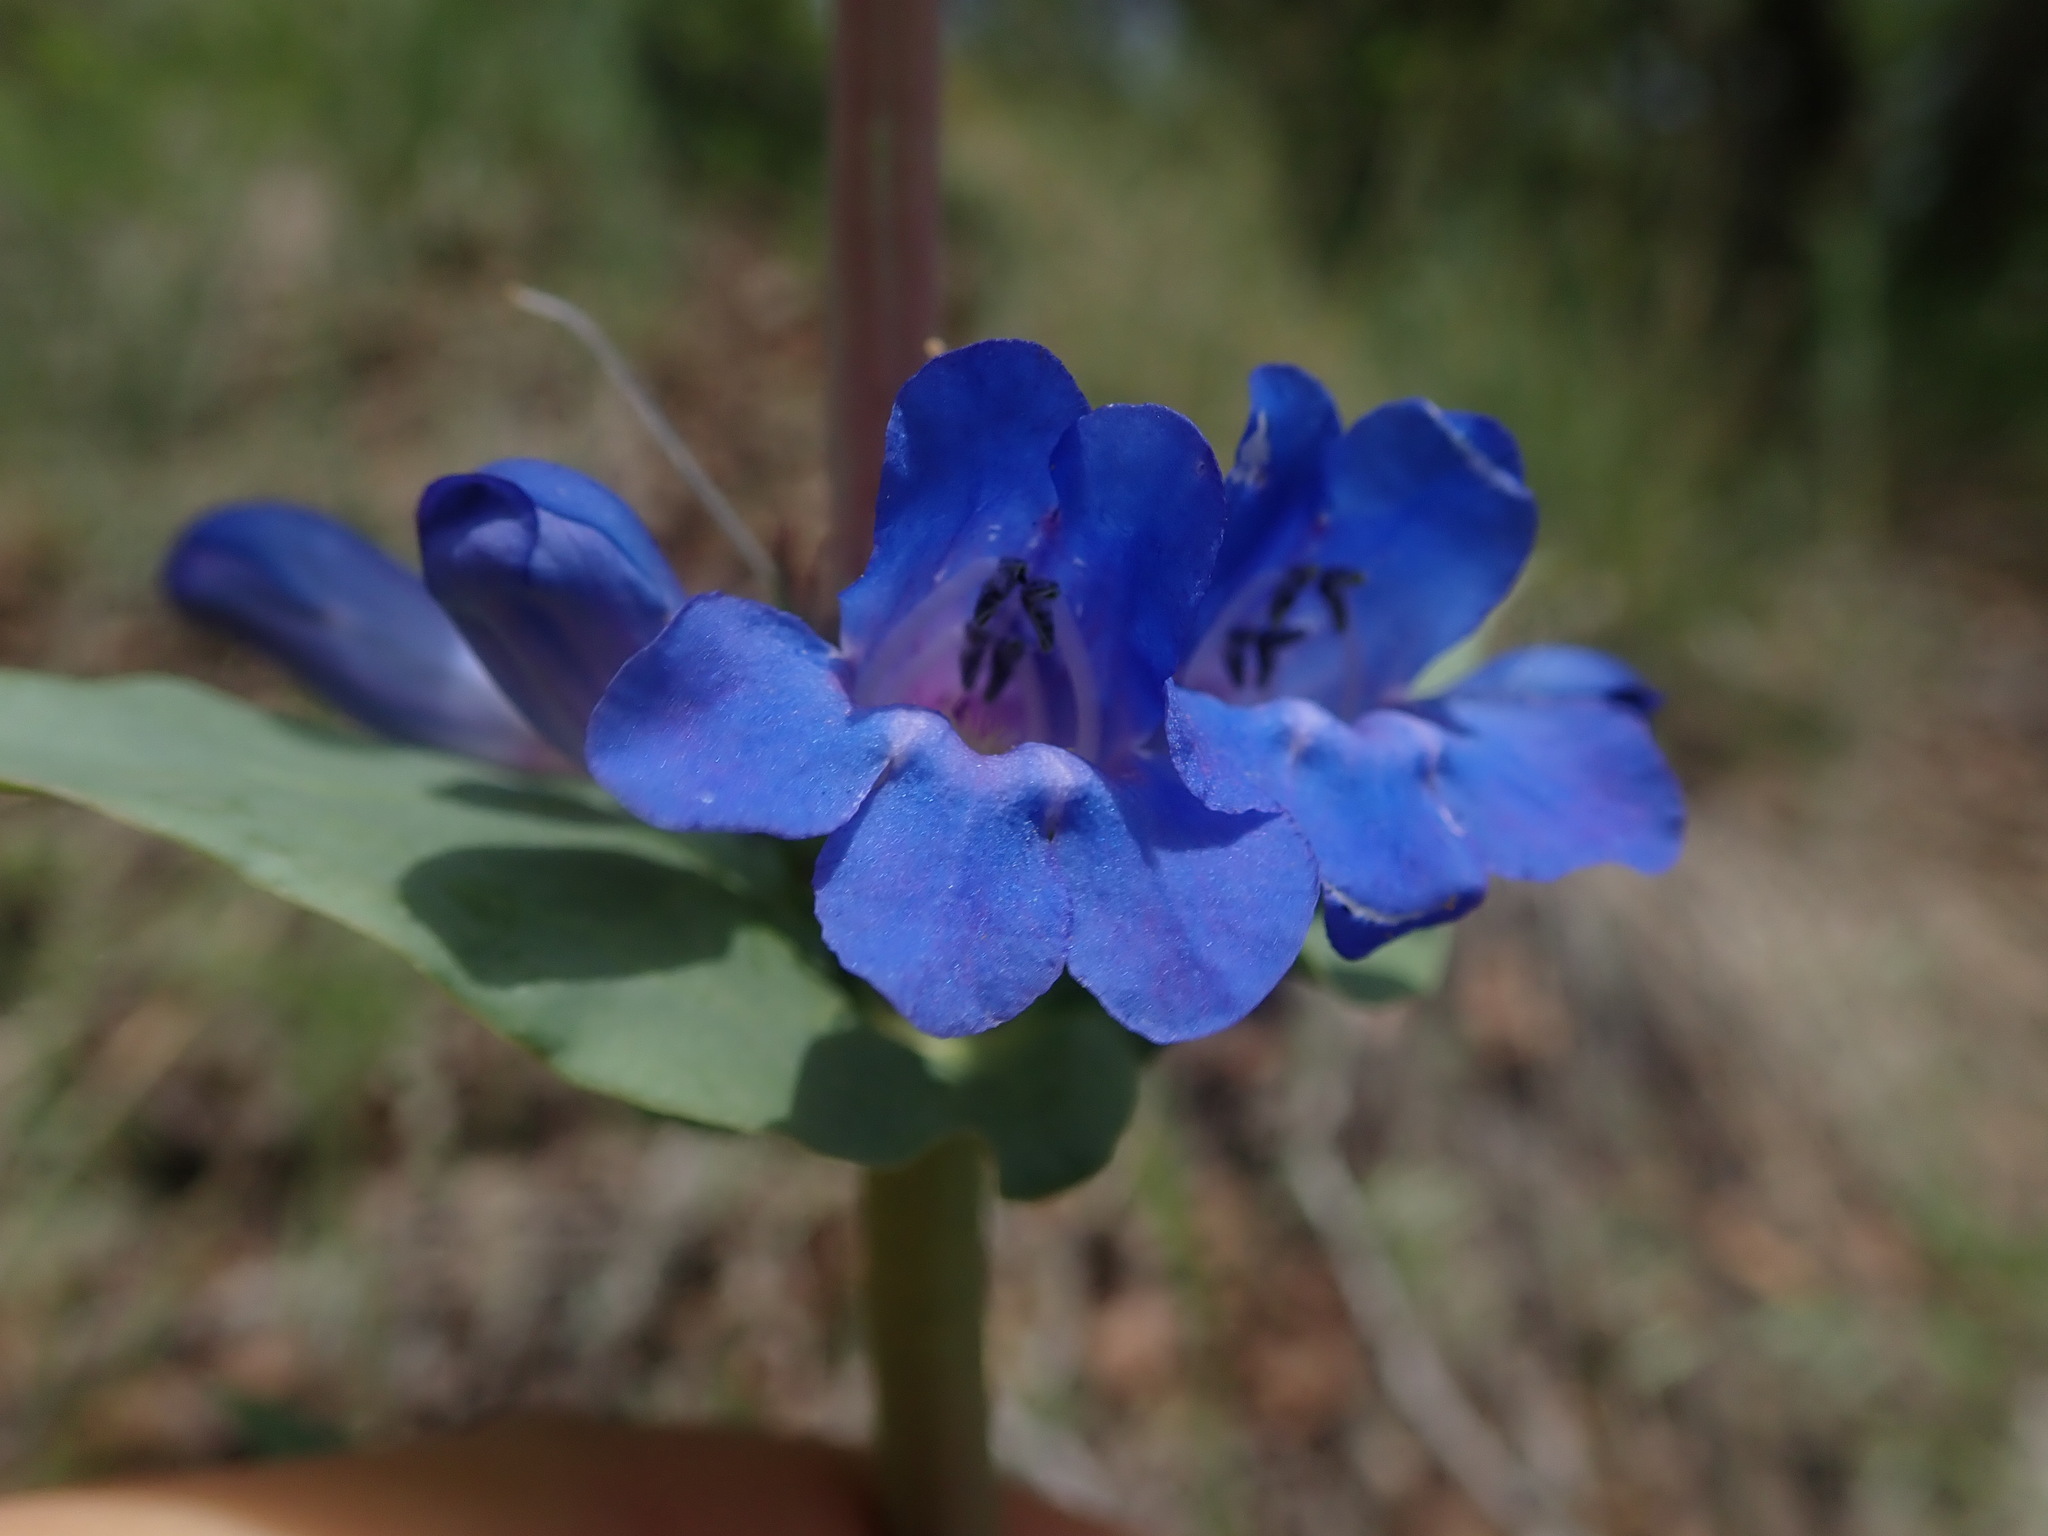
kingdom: Plantae
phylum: Tracheophyta
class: Magnoliopsida
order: Lamiales
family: Plantaginaceae
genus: Penstemon
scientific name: Penstemon cyananthus
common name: Wasatch penstemon
